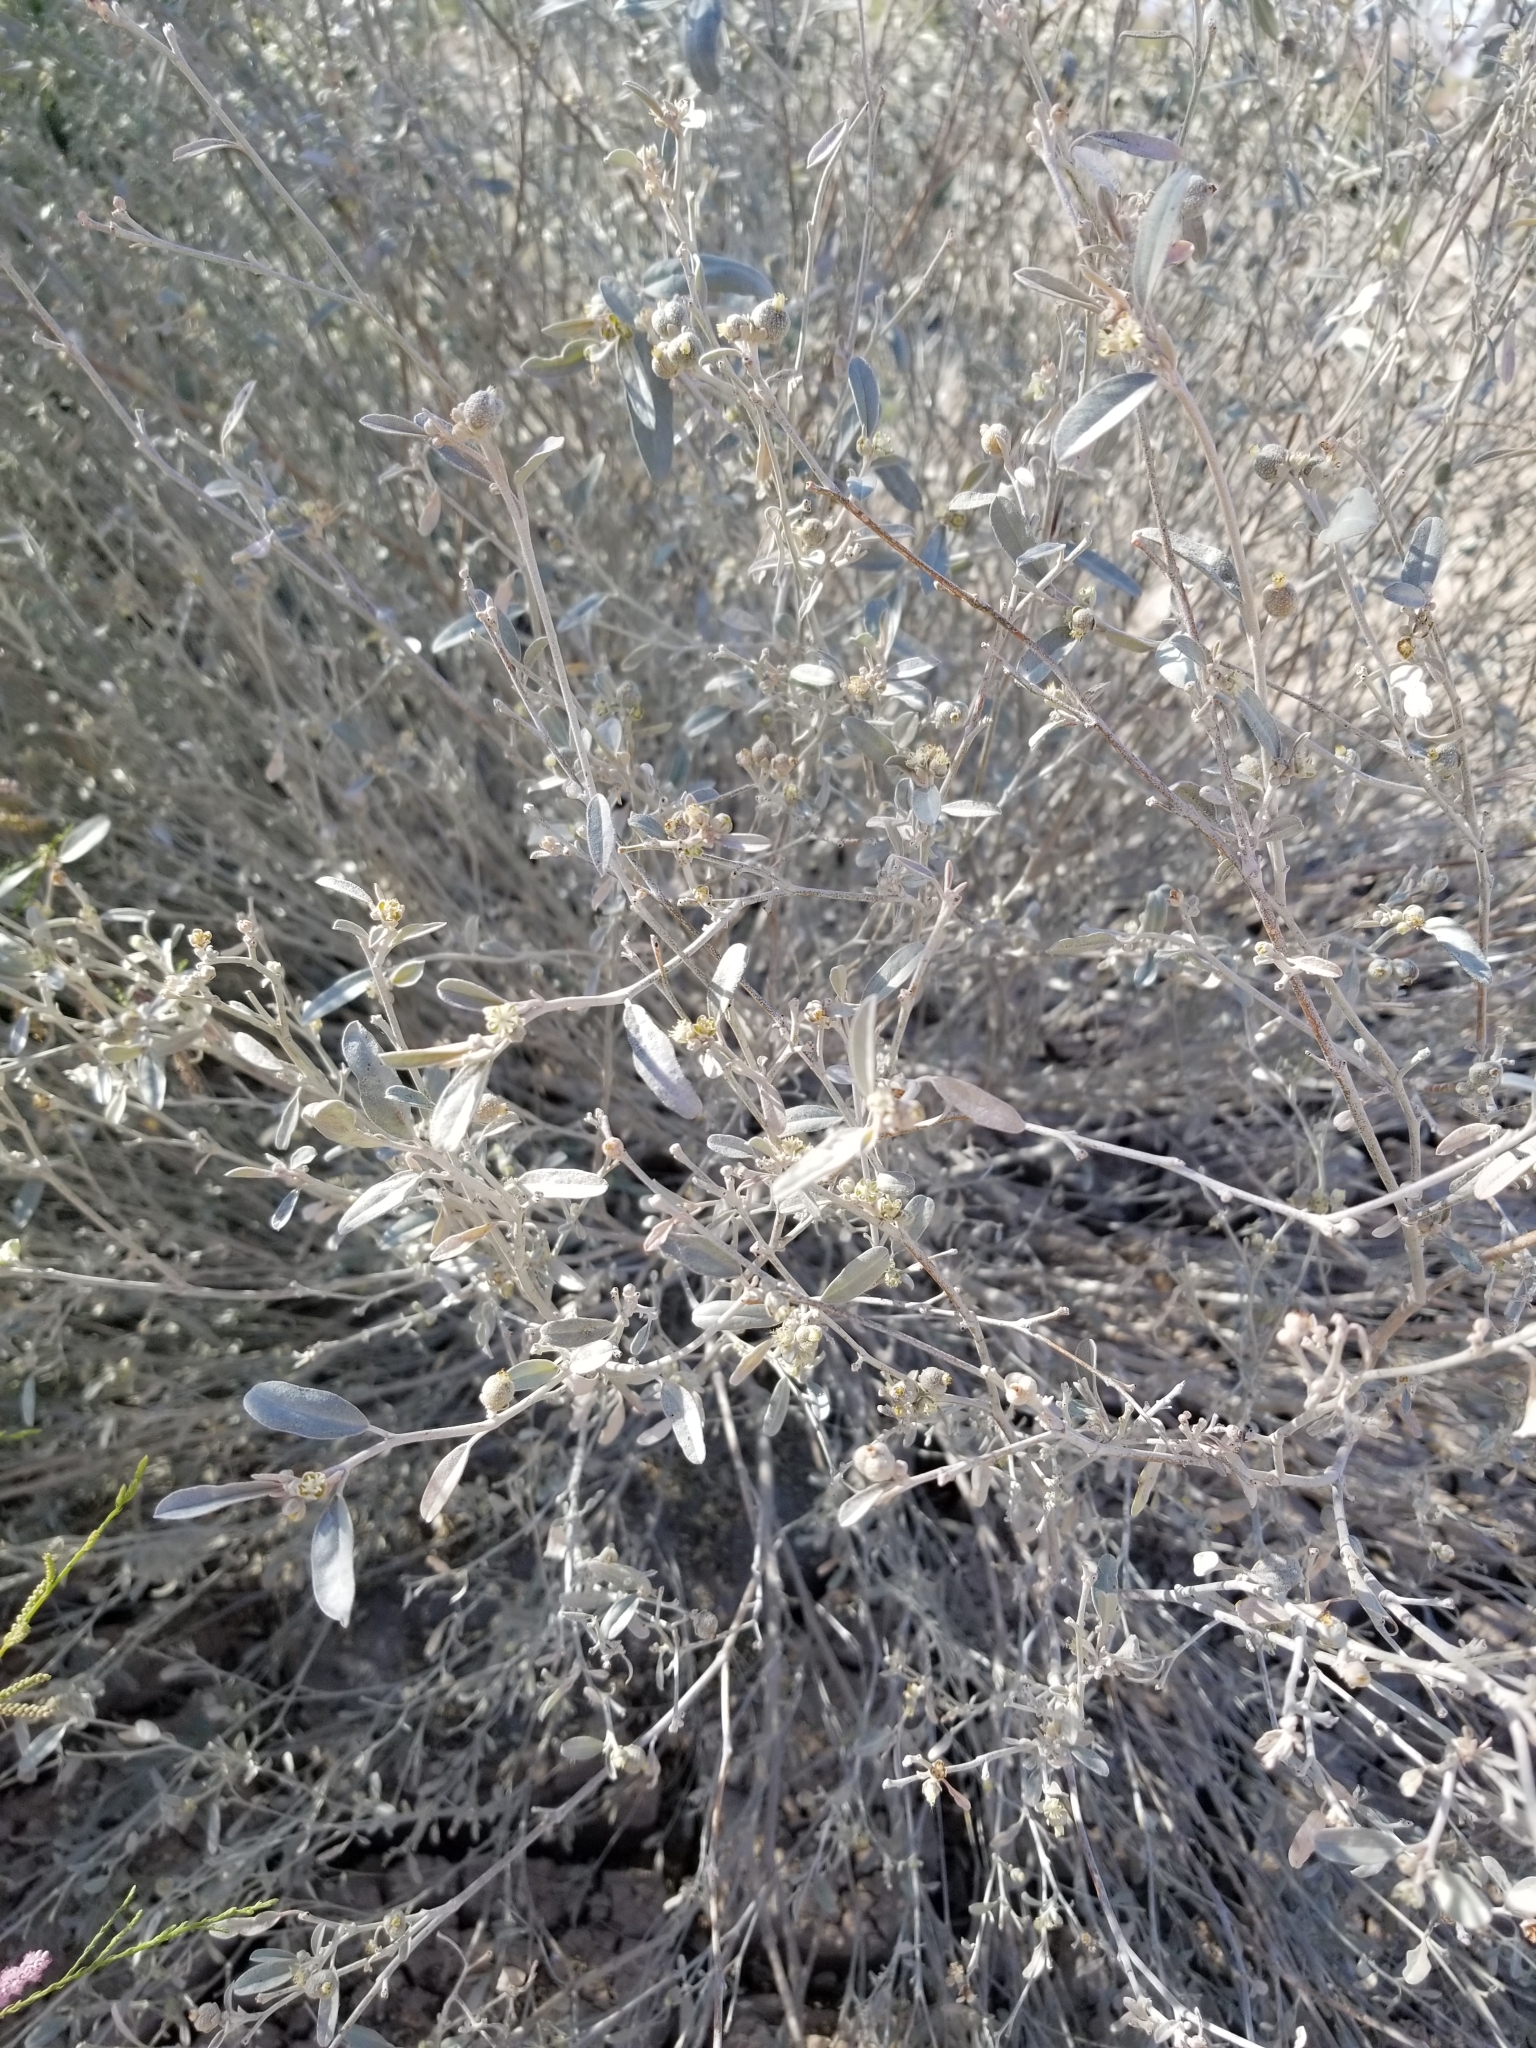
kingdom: Plantae
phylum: Tracheophyta
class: Magnoliopsida
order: Malpighiales
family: Euphorbiaceae
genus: Croton
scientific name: Croton californicus
